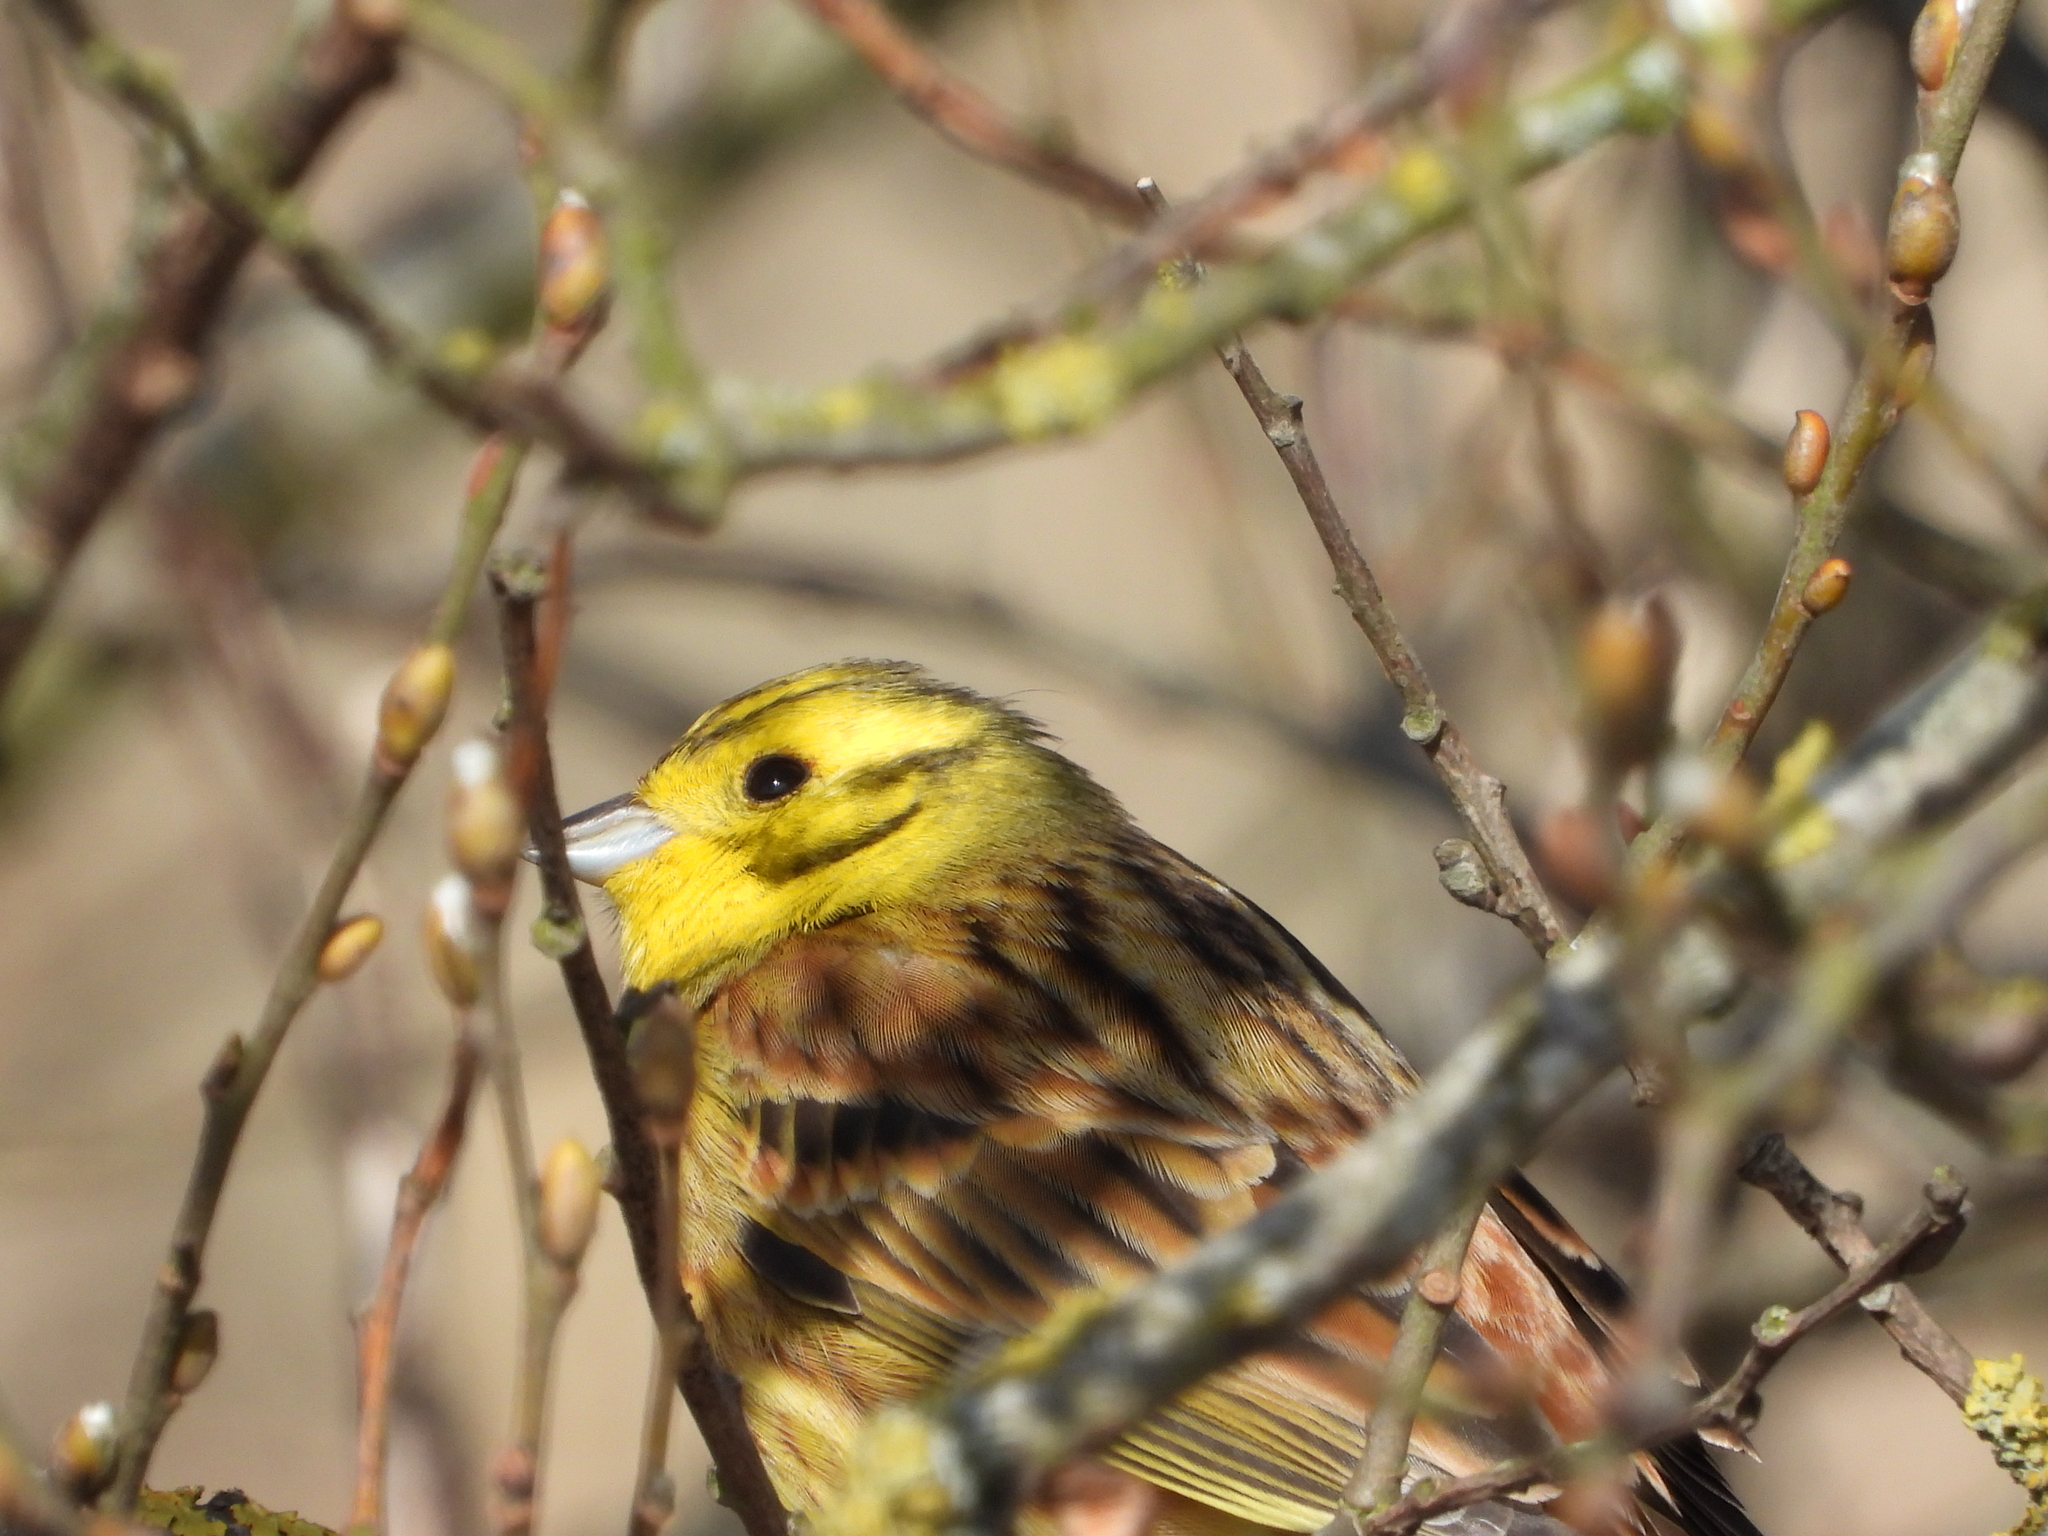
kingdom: Animalia
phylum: Chordata
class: Aves
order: Passeriformes
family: Emberizidae
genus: Emberiza
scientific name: Emberiza citrinella
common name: Yellowhammer
